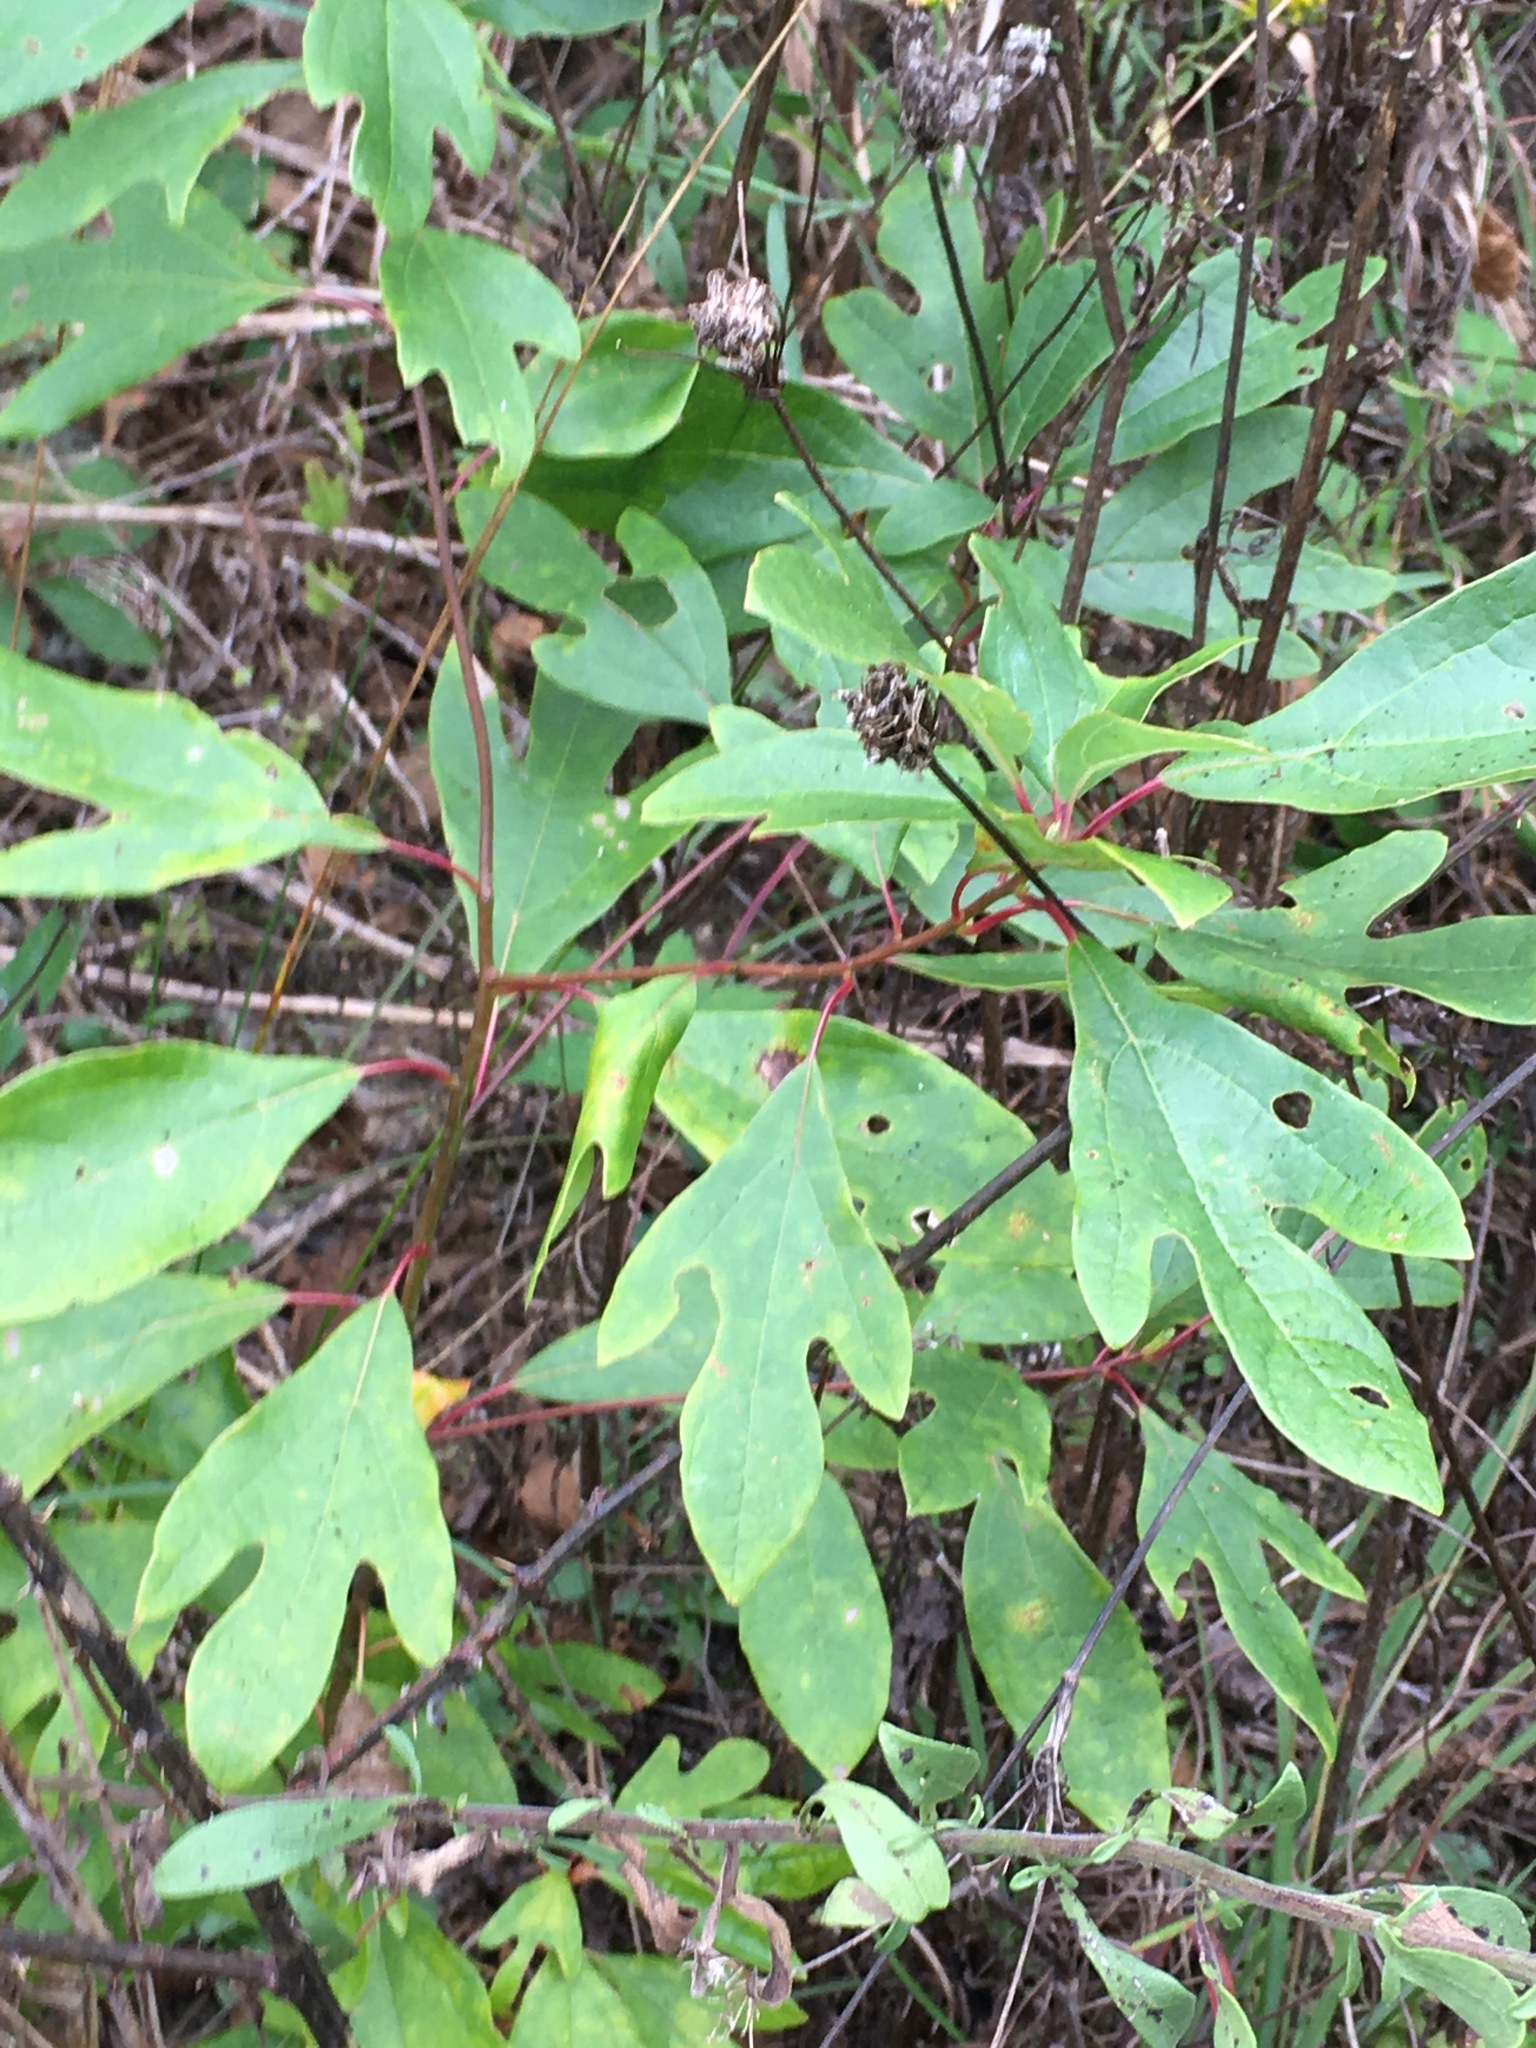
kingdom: Plantae
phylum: Tracheophyta
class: Magnoliopsida
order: Laurales
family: Lauraceae
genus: Sassafras
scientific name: Sassafras albidum
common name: Sassafras
